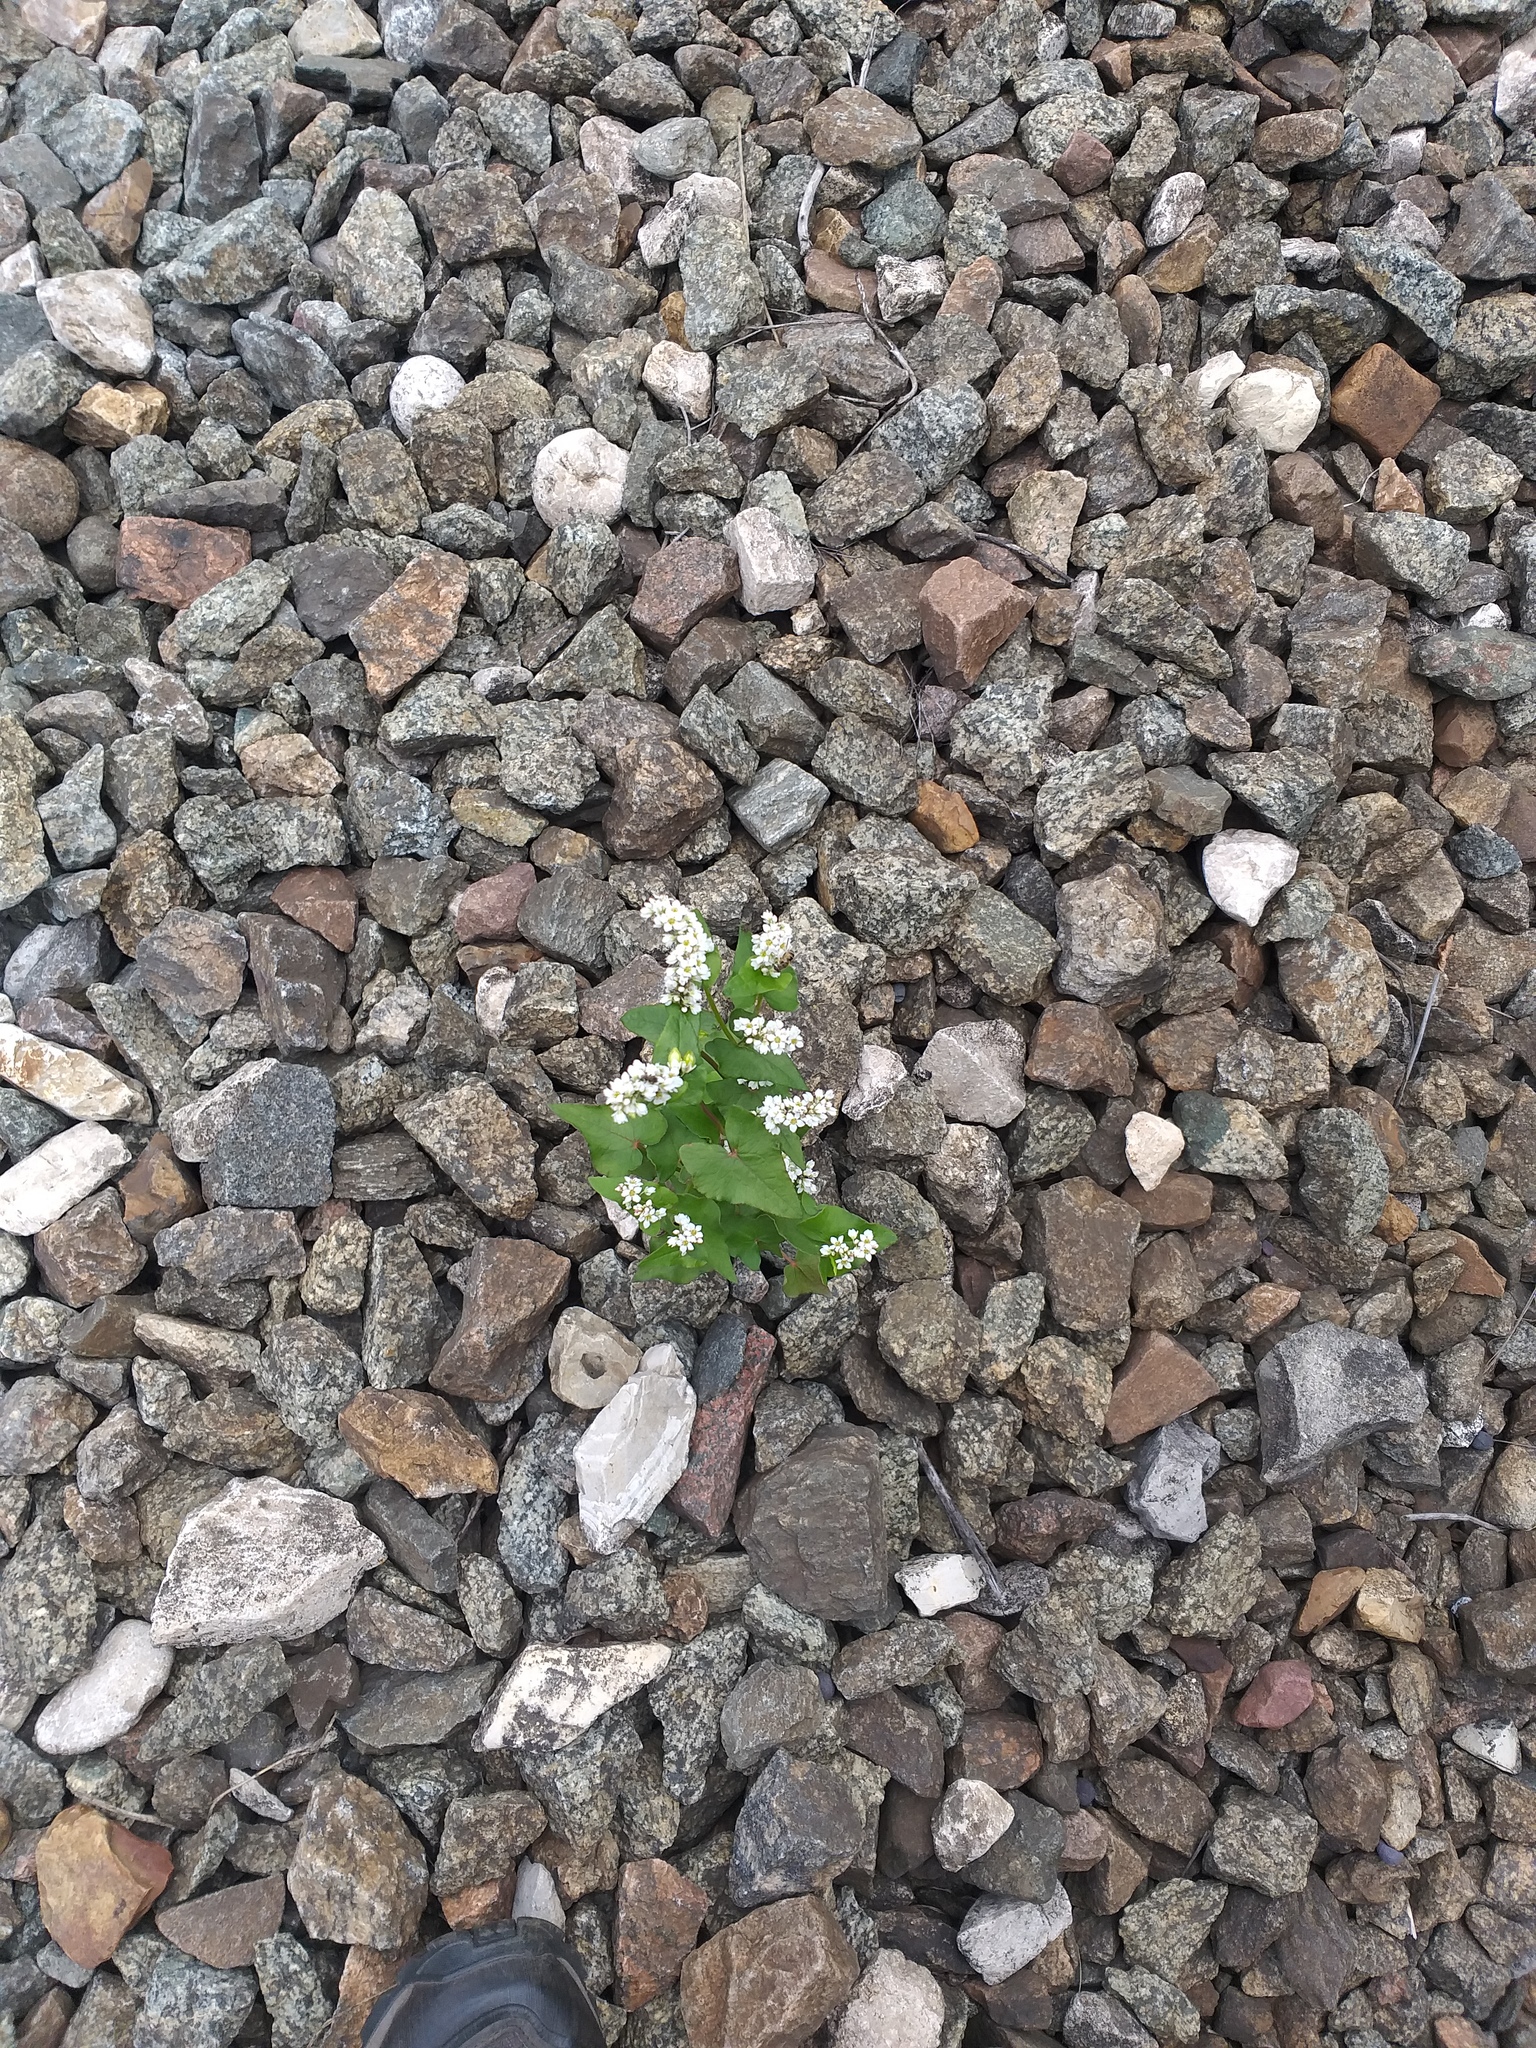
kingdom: Plantae
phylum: Tracheophyta
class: Magnoliopsida
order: Caryophyllales
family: Polygonaceae
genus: Fagopyrum
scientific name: Fagopyrum esculentum
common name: Buckwheat
